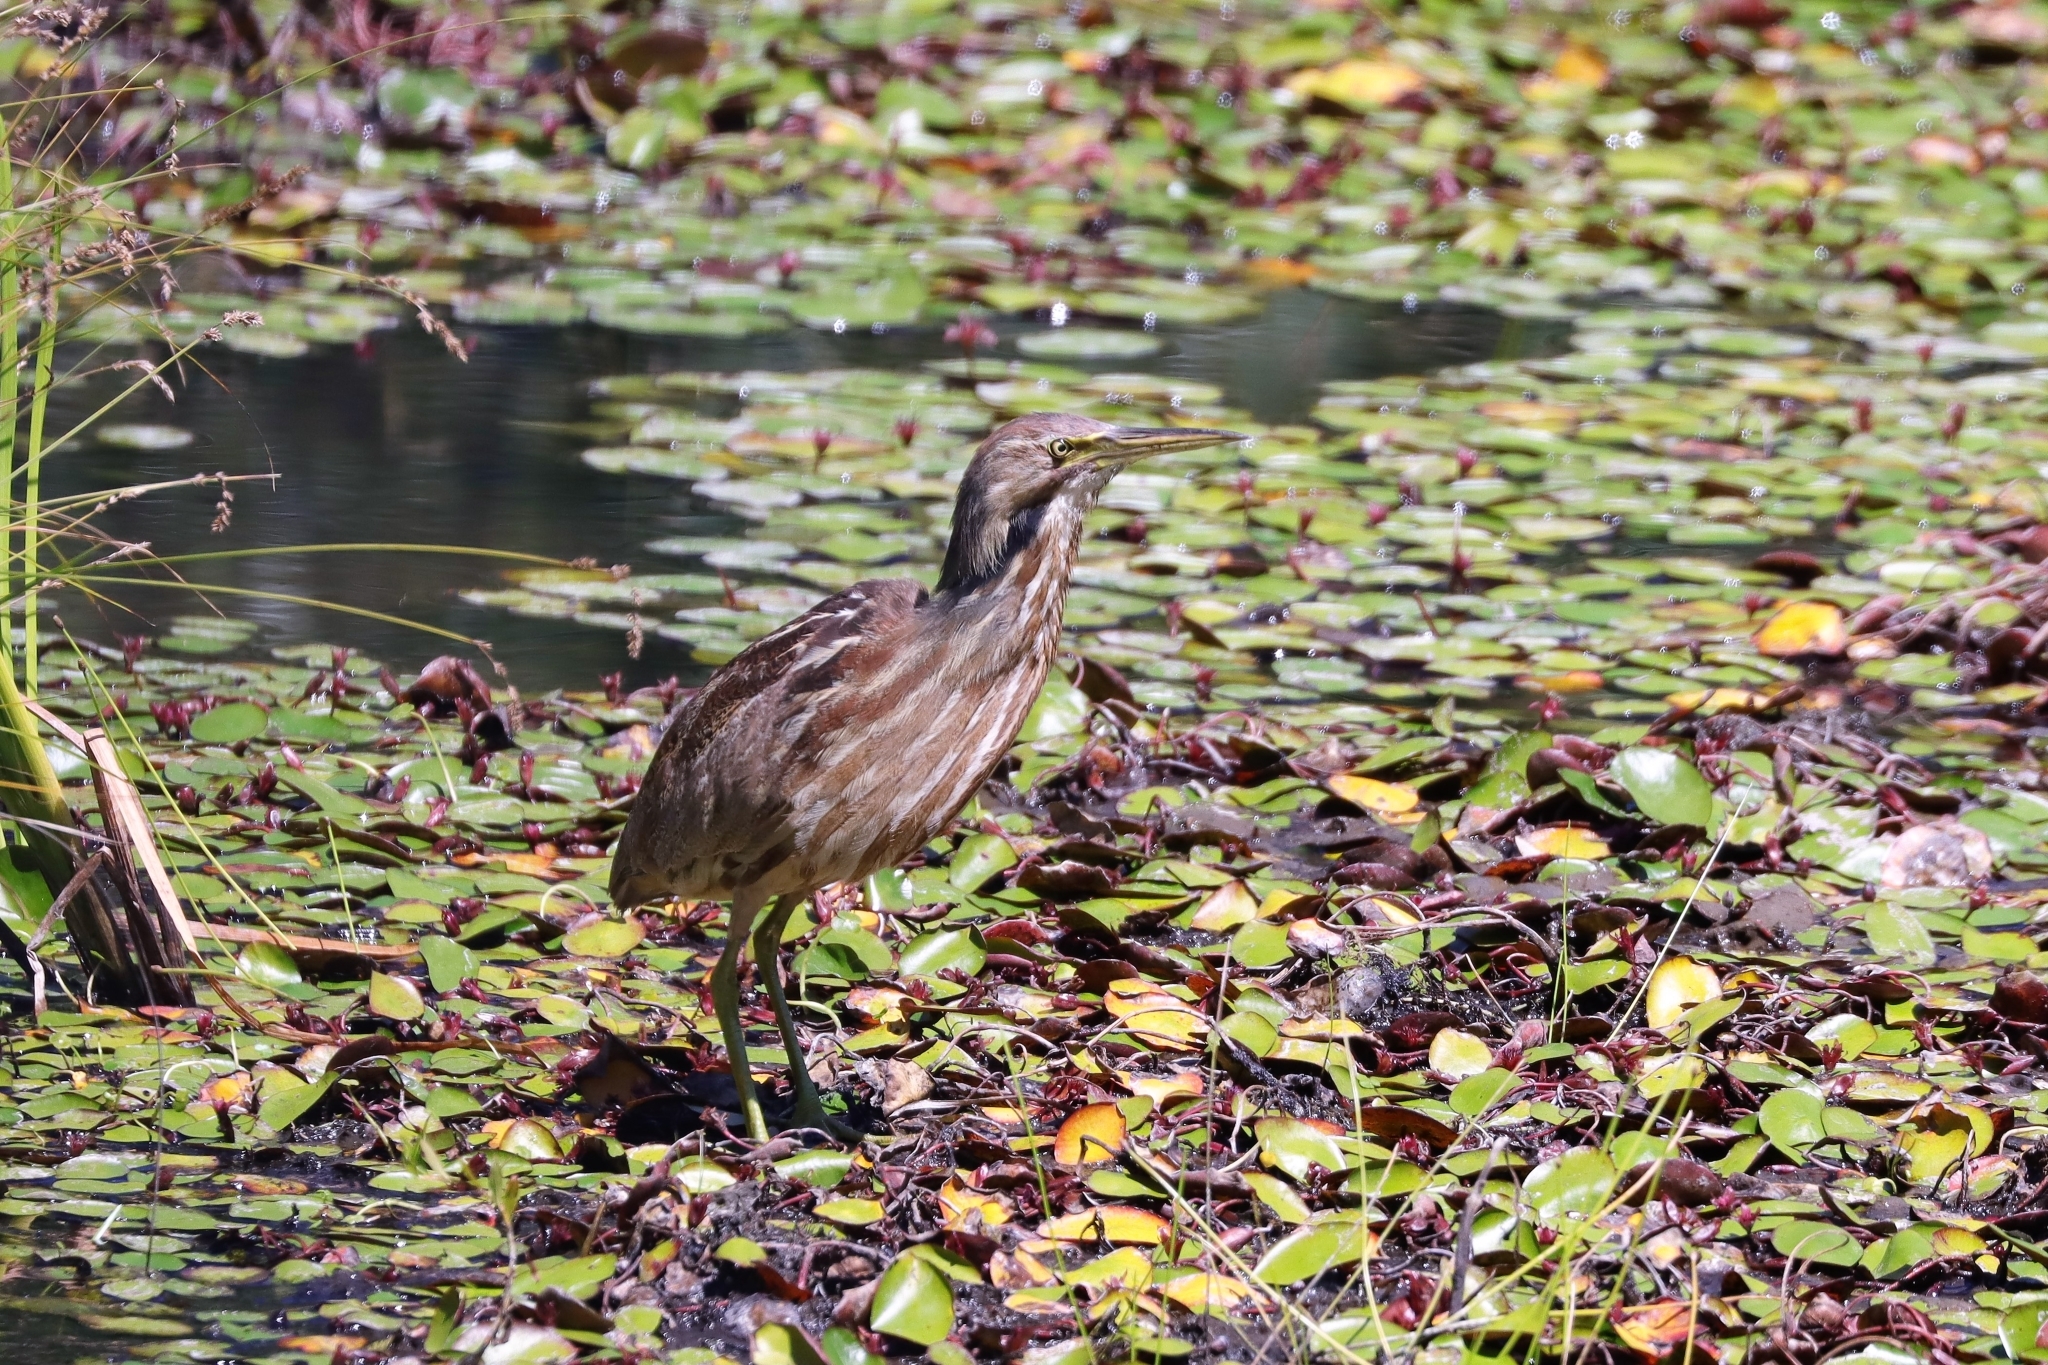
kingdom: Animalia
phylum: Chordata
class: Aves
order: Pelecaniformes
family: Ardeidae
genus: Botaurus
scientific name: Botaurus lentiginosus
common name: American bittern
